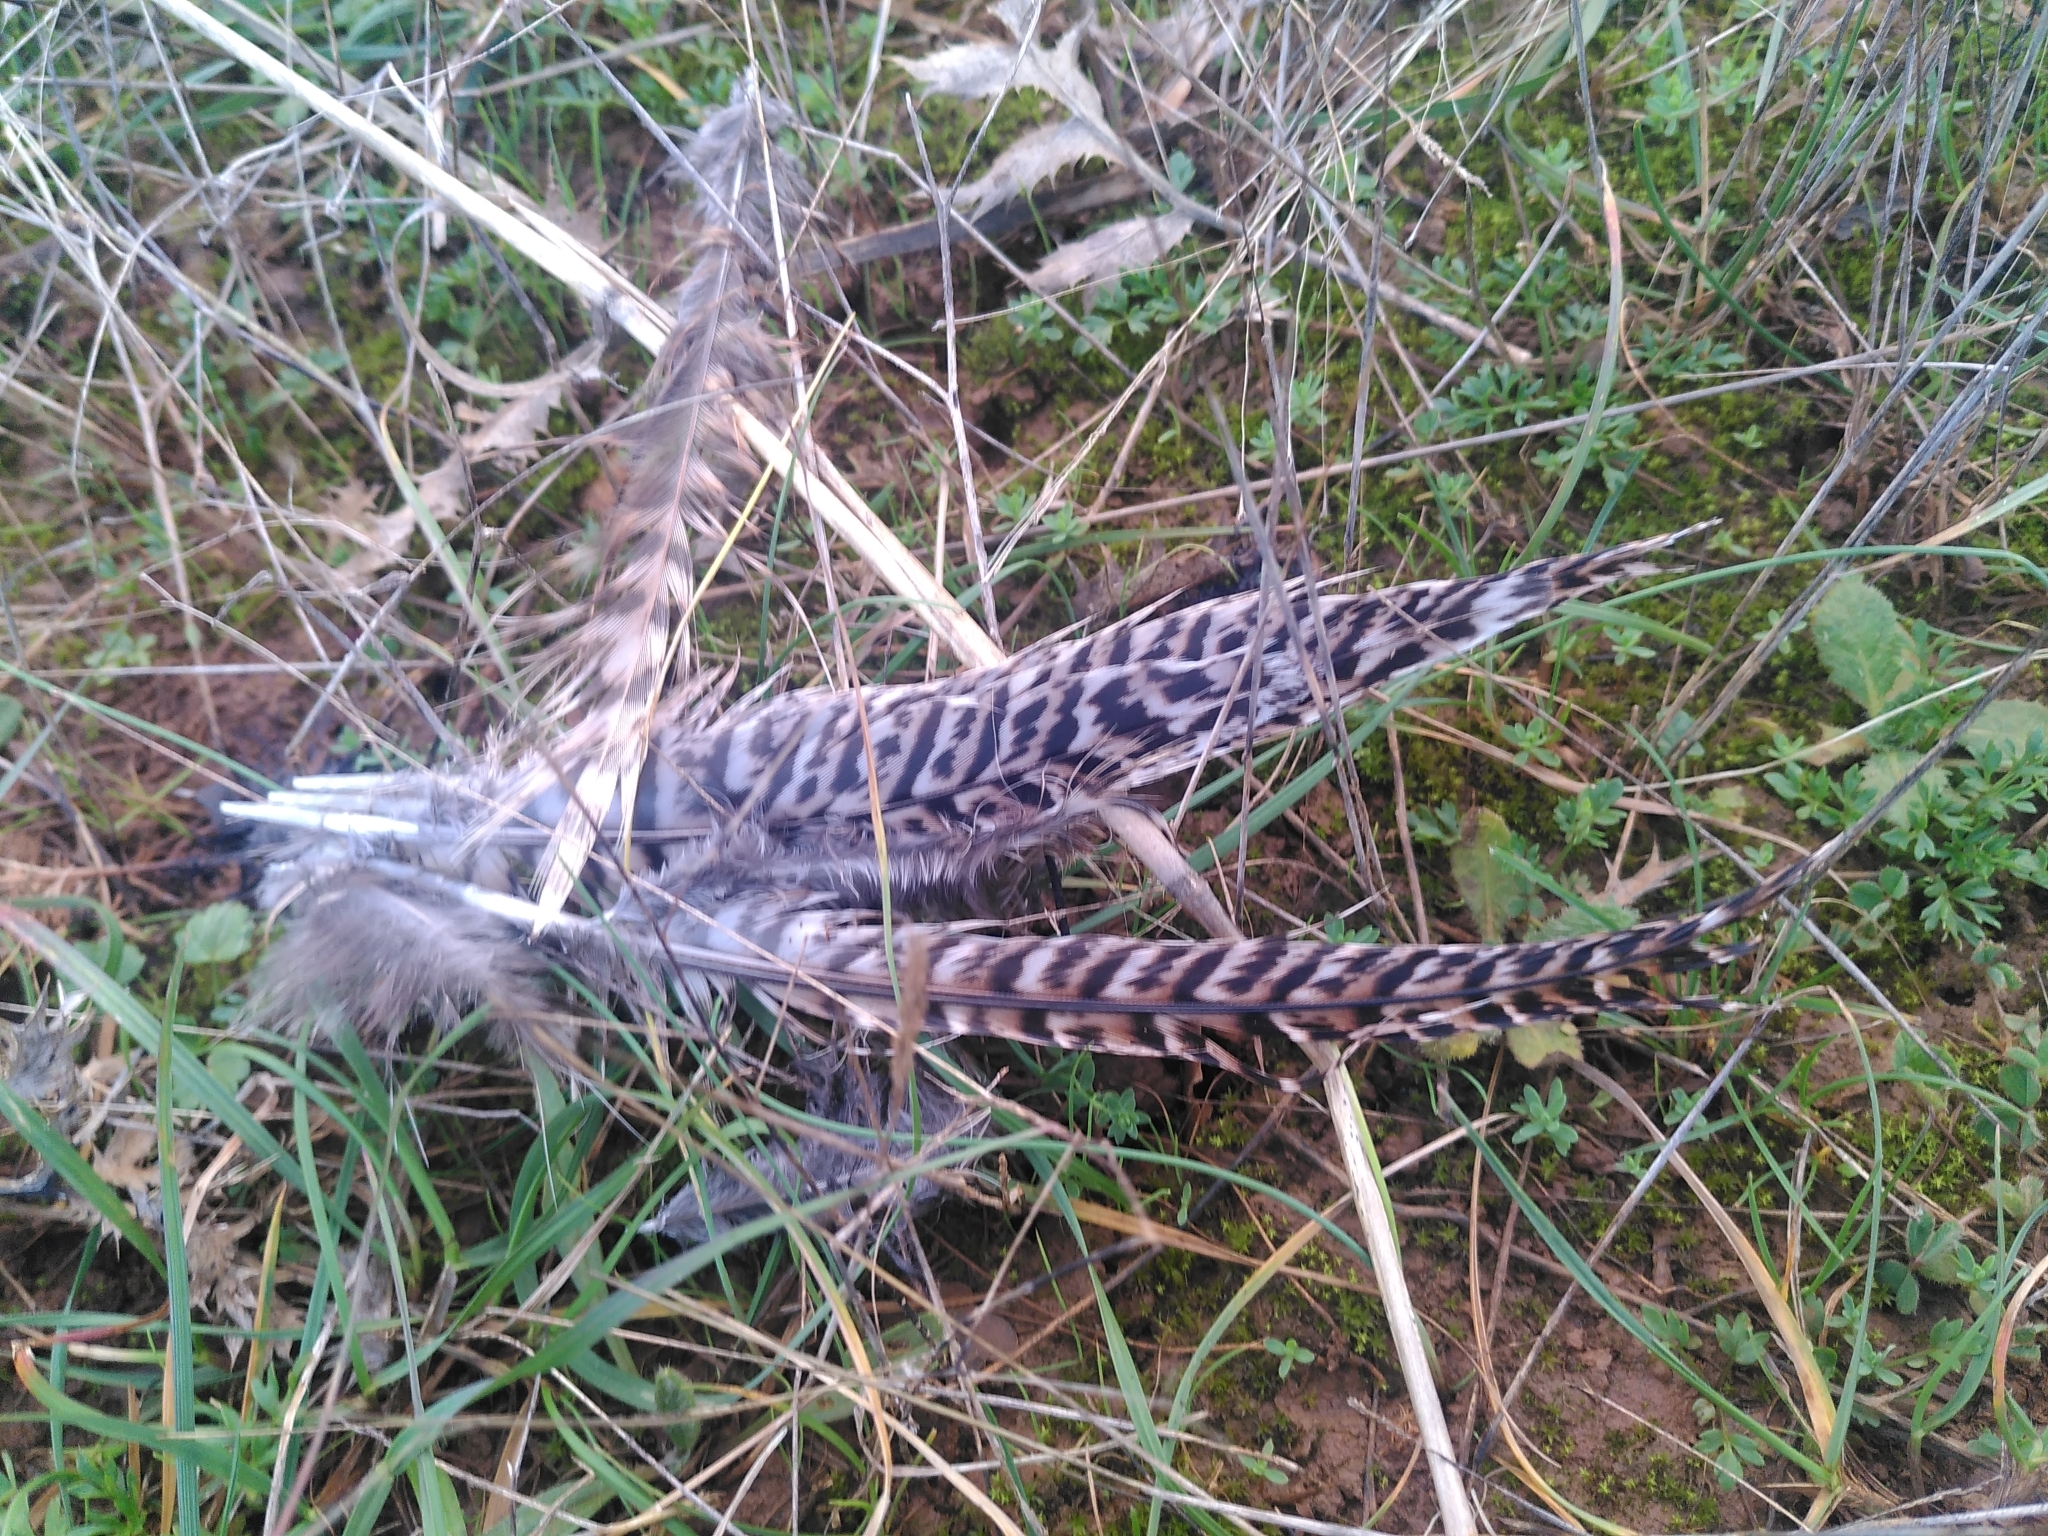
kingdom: Animalia
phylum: Chordata
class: Aves
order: Galliformes
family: Phasianidae
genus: Phasianus
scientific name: Phasianus colchicus
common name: Common pheasant
